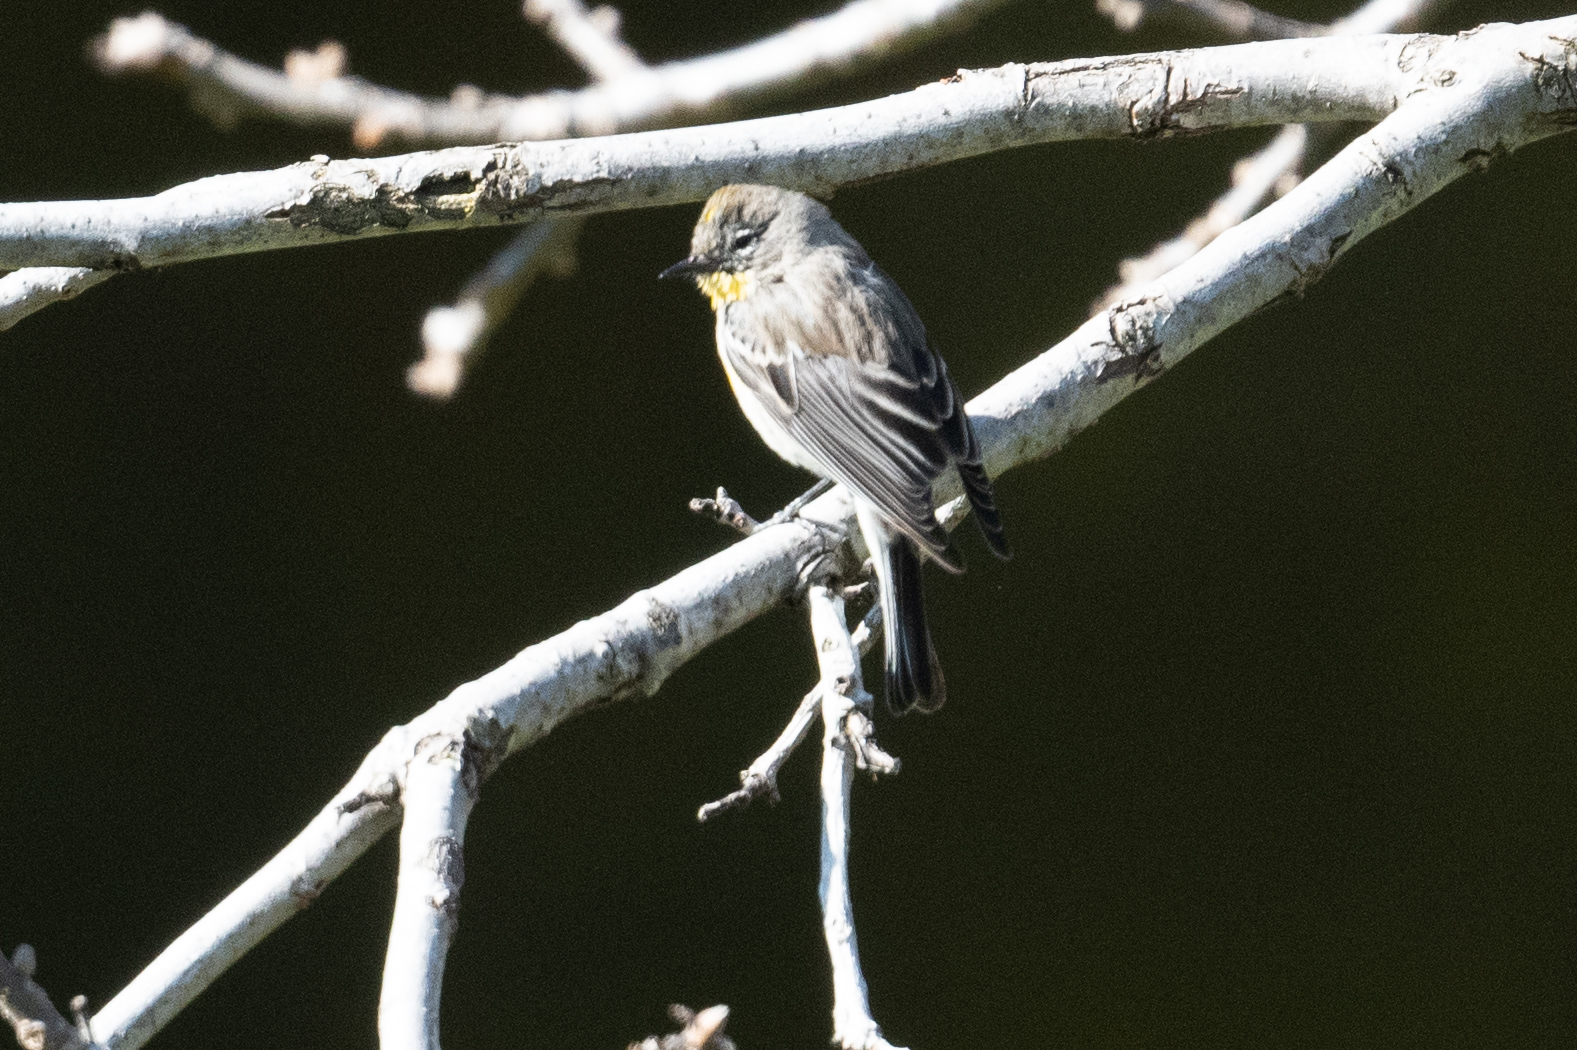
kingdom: Animalia
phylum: Chordata
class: Aves
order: Passeriformes
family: Parulidae
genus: Setophaga
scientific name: Setophaga coronata
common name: Myrtle warbler
